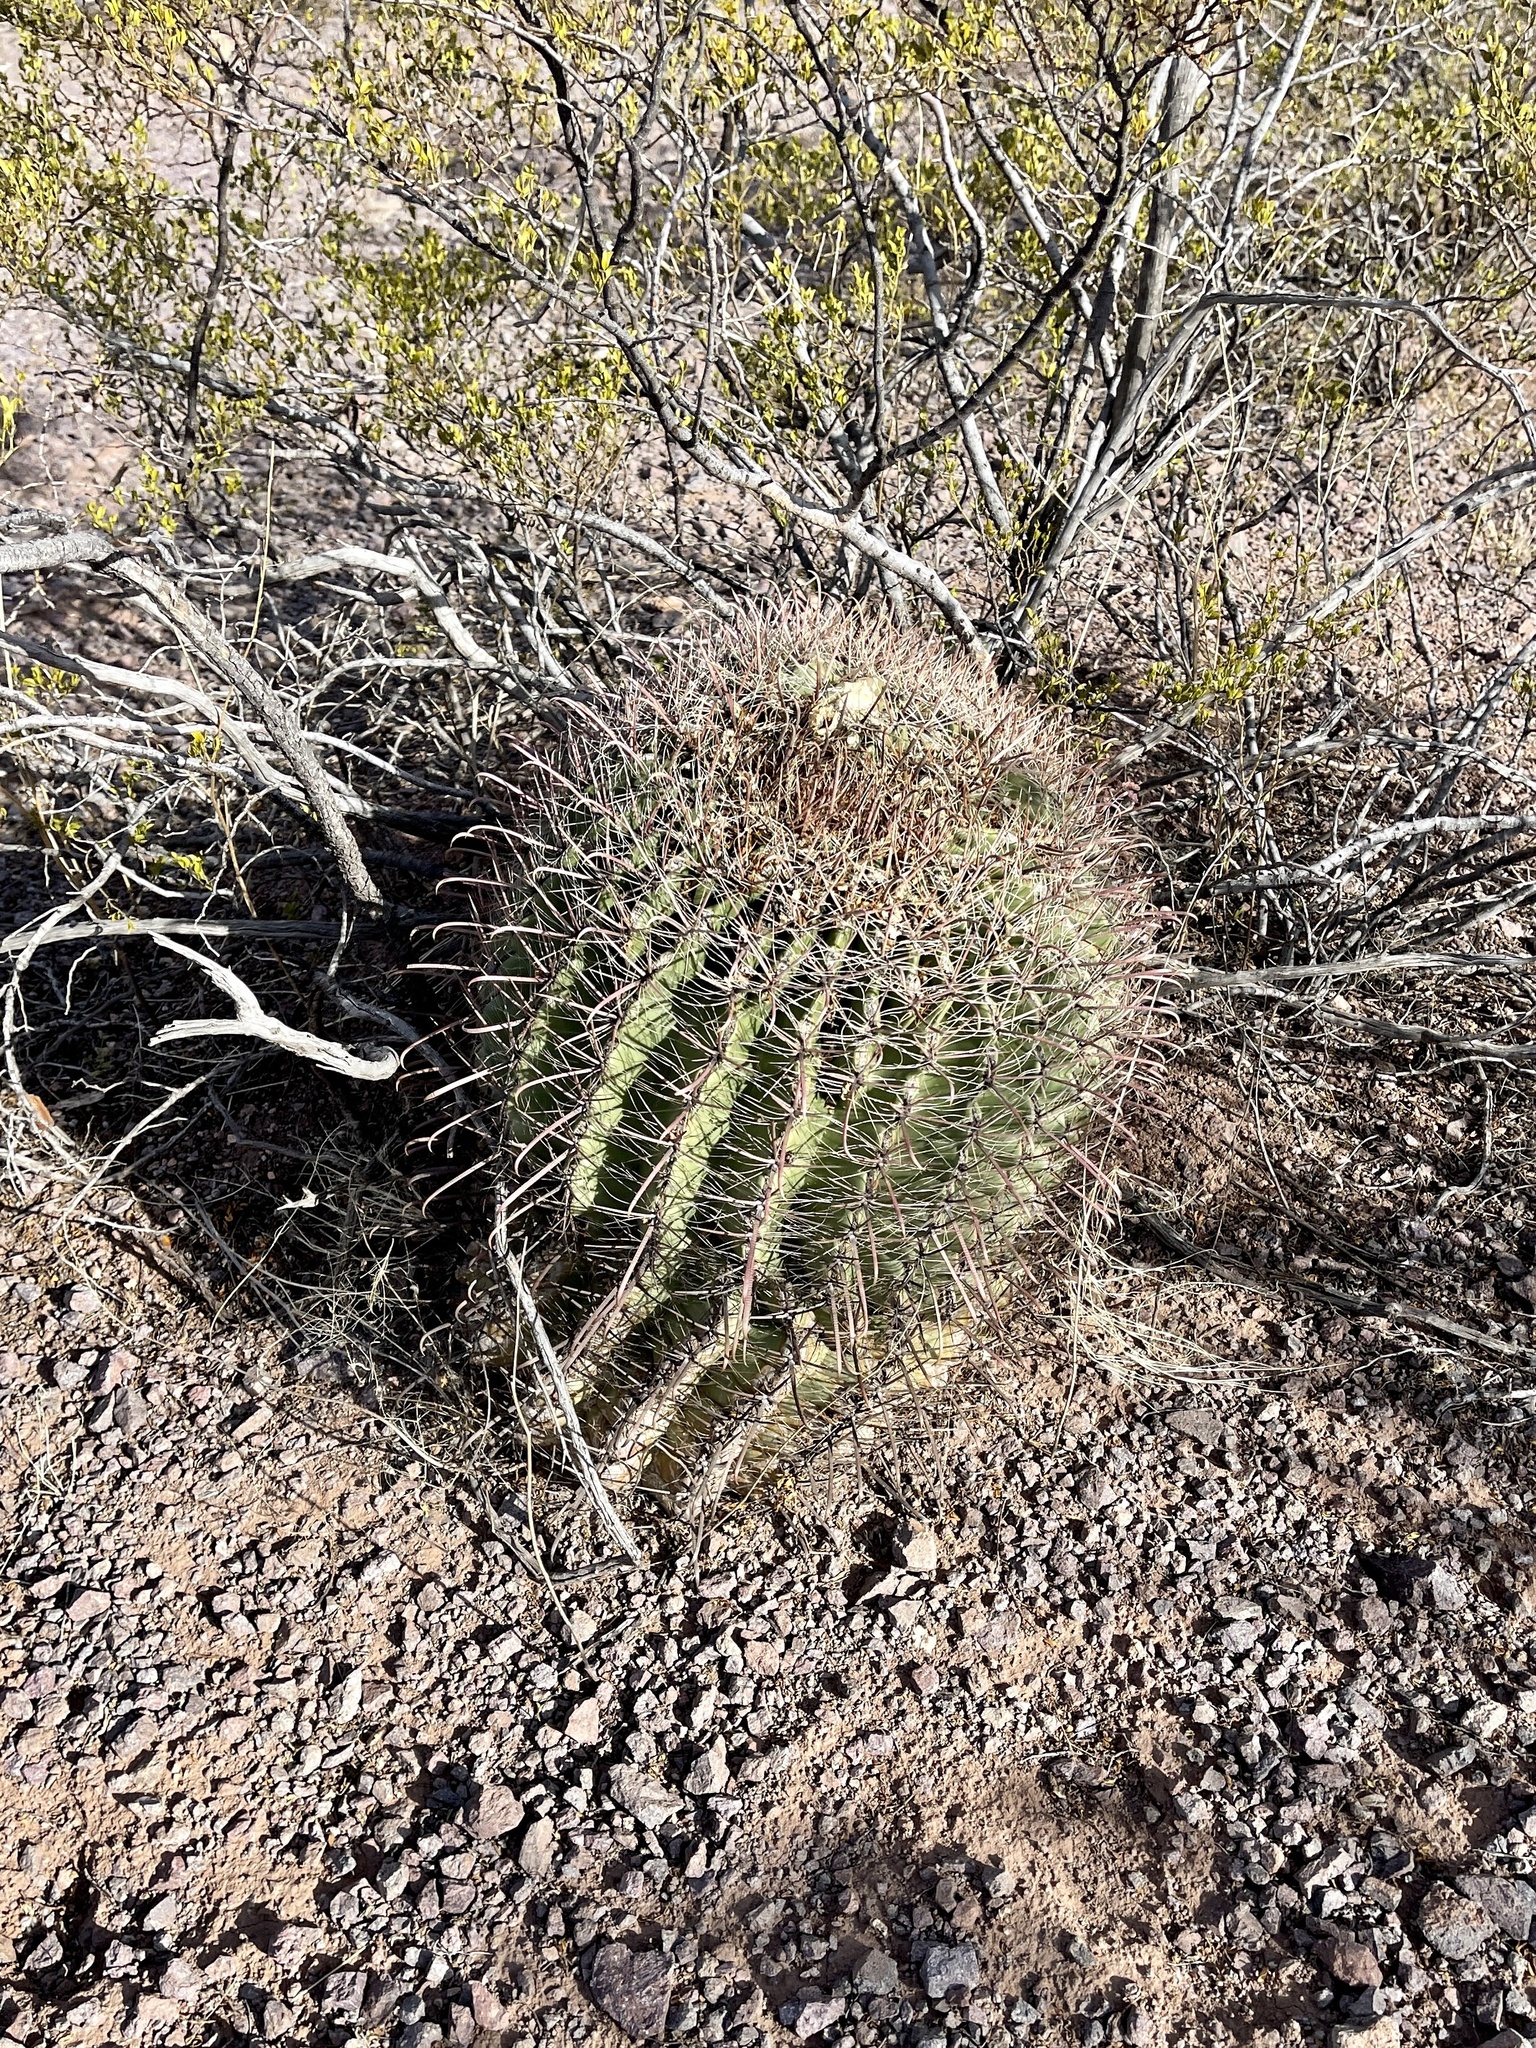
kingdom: Plantae
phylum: Tracheophyta
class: Magnoliopsida
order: Caryophyllales
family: Cactaceae
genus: Ferocactus
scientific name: Ferocactus wislizeni
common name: Candy barrel cactus
